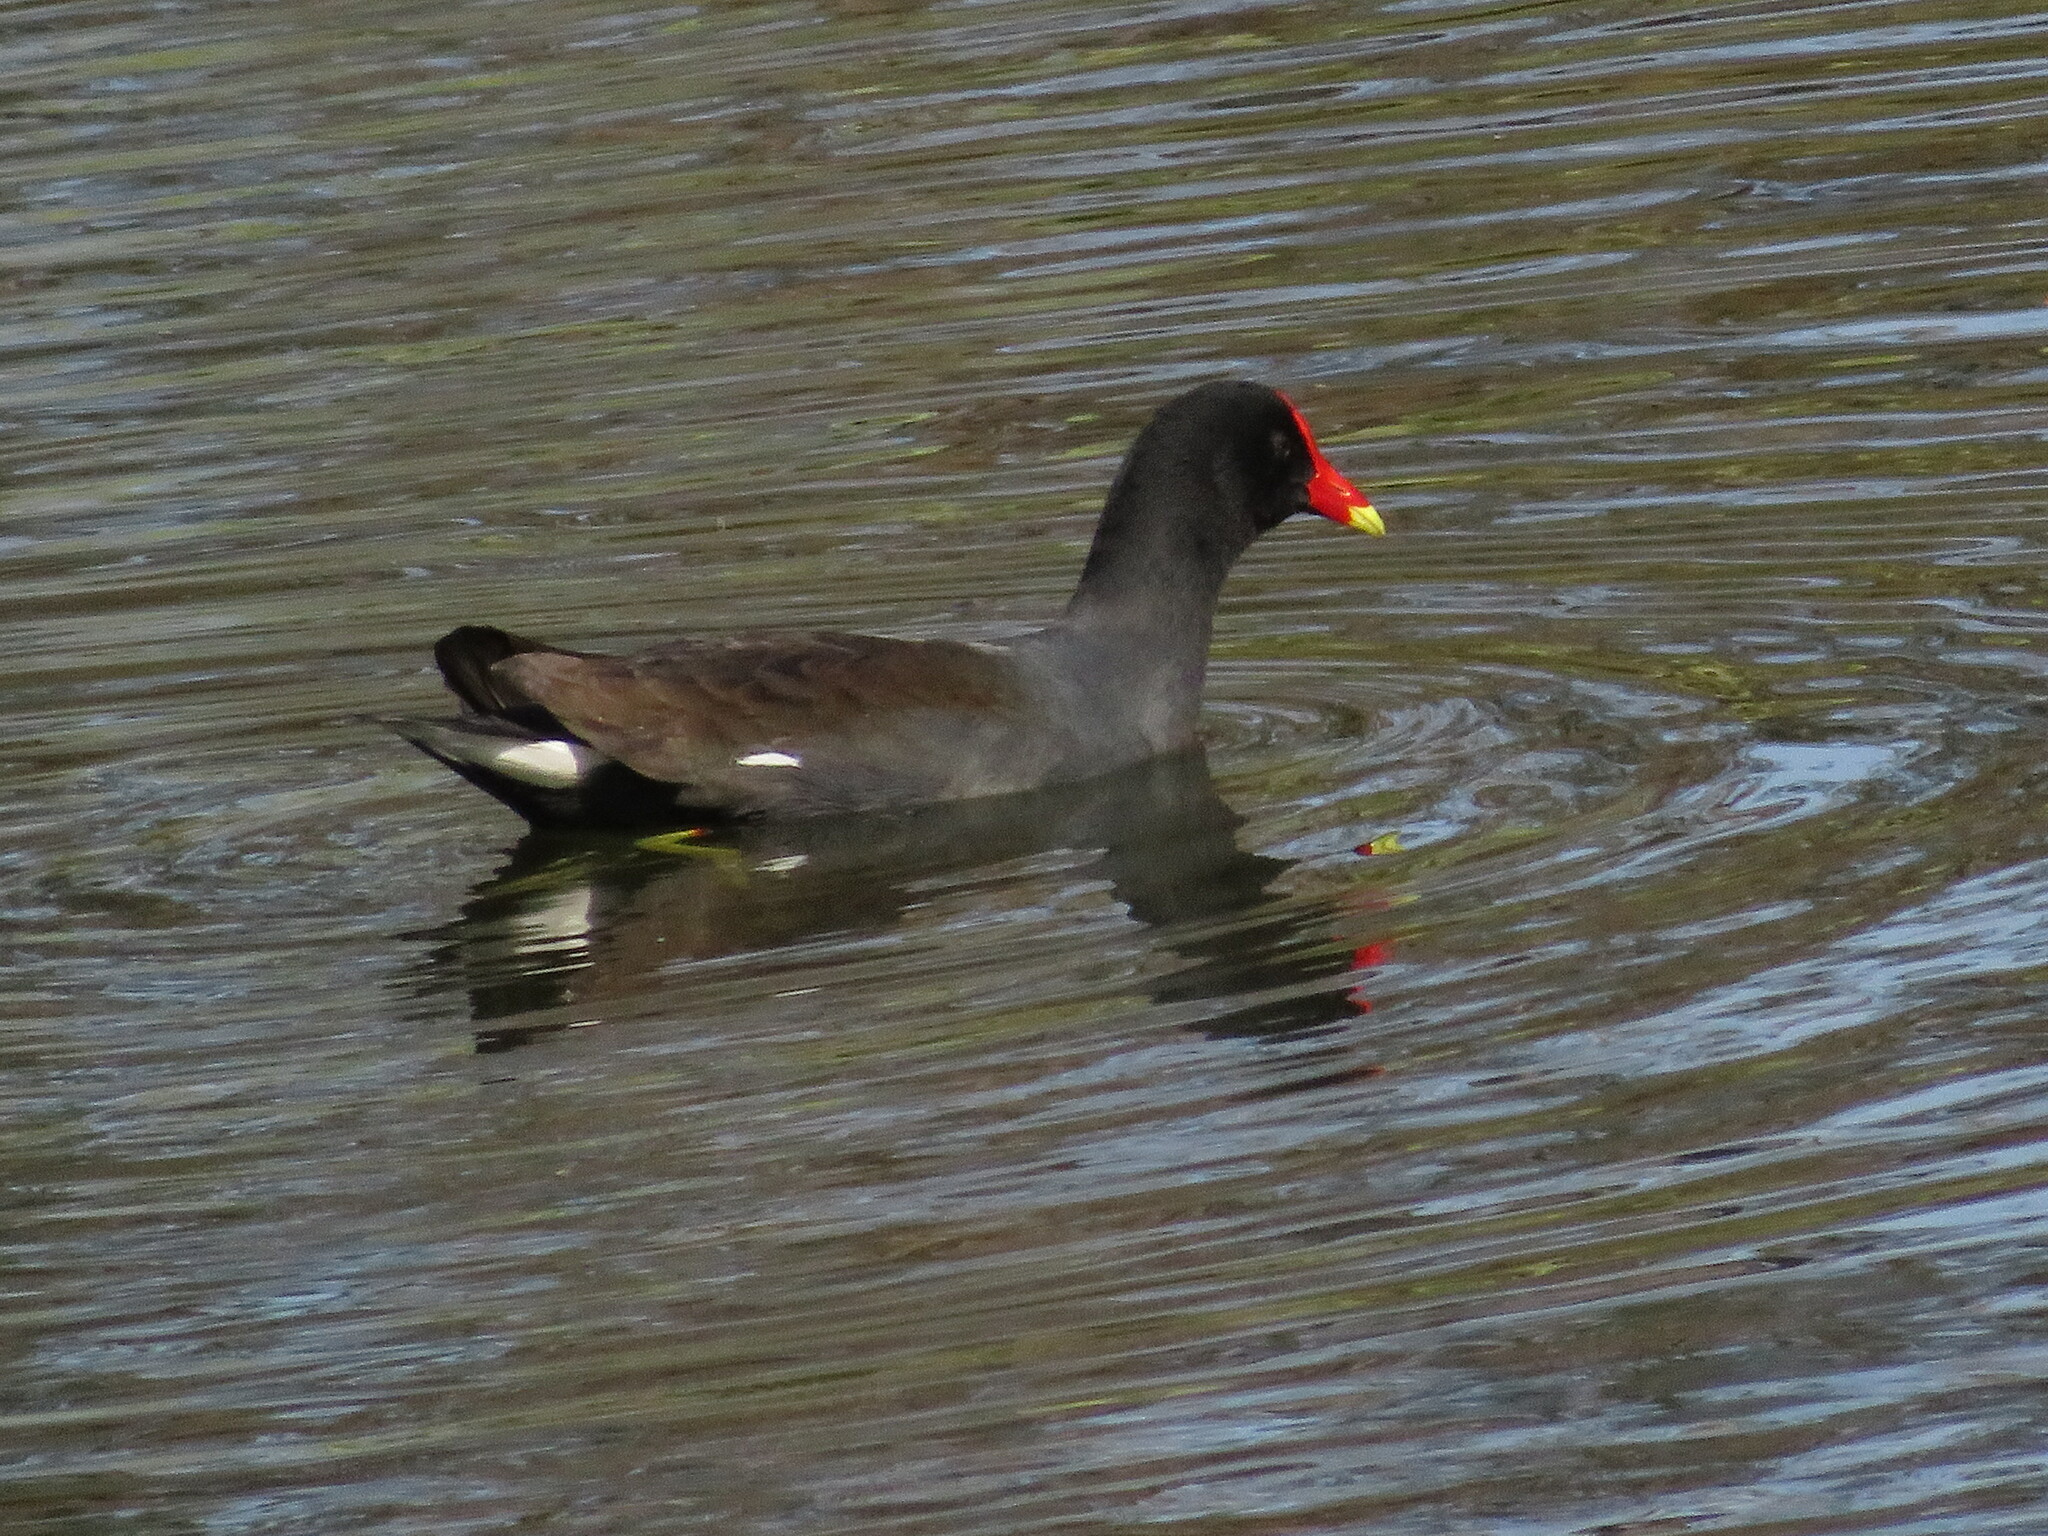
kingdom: Animalia
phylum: Chordata
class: Aves
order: Gruiformes
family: Rallidae
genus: Gallinula
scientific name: Gallinula chloropus
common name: Common moorhen
